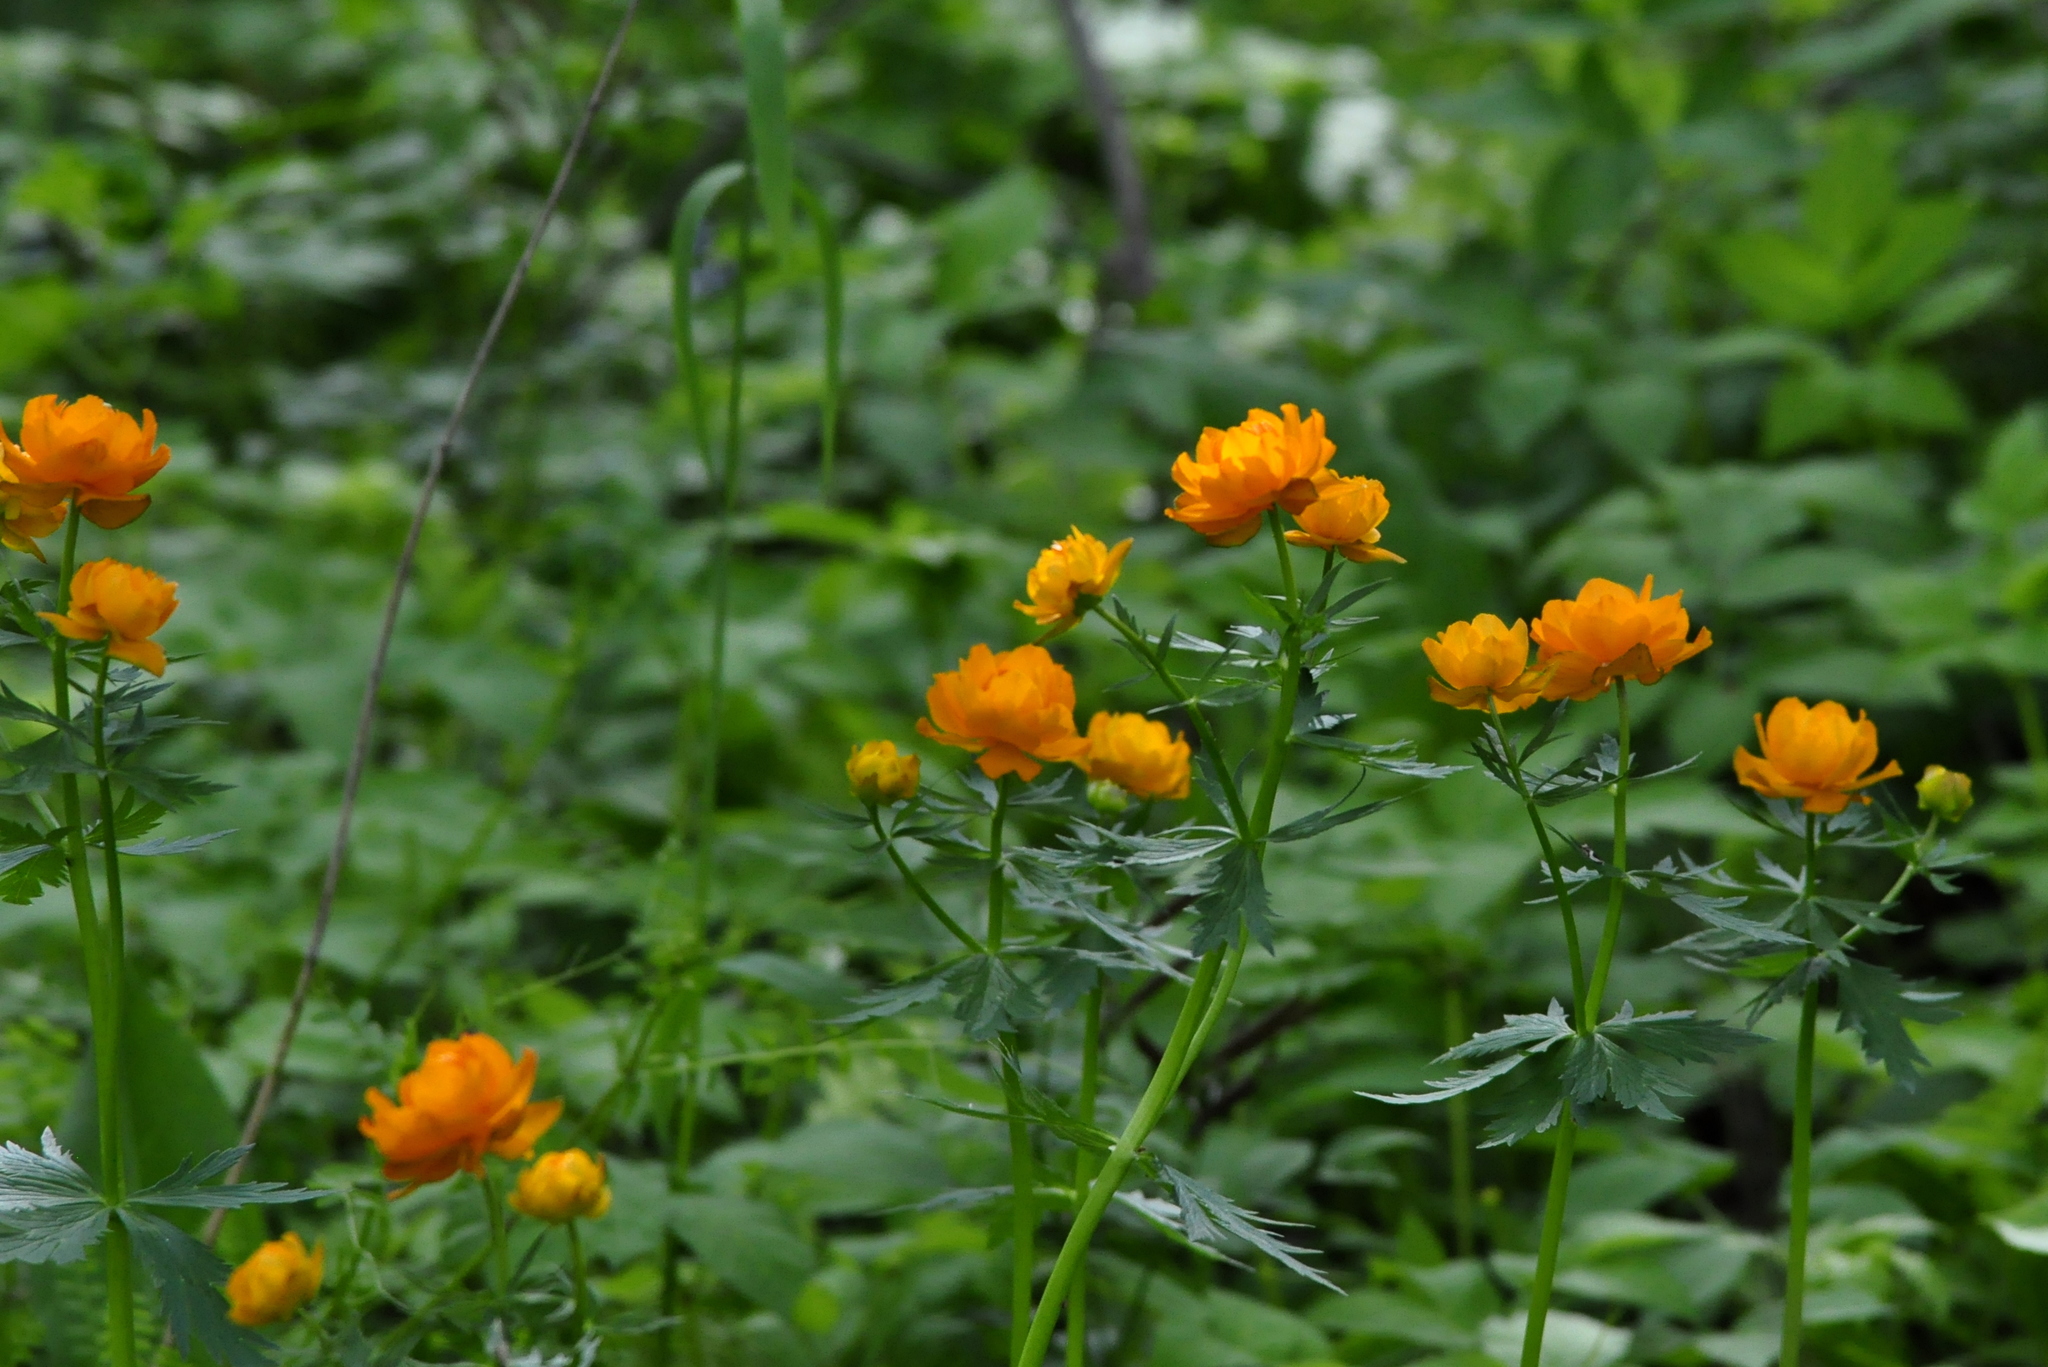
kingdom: Plantae
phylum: Tracheophyta
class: Magnoliopsida
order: Ranunculales
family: Ranunculaceae
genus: Trollius
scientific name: Trollius asiaticus
